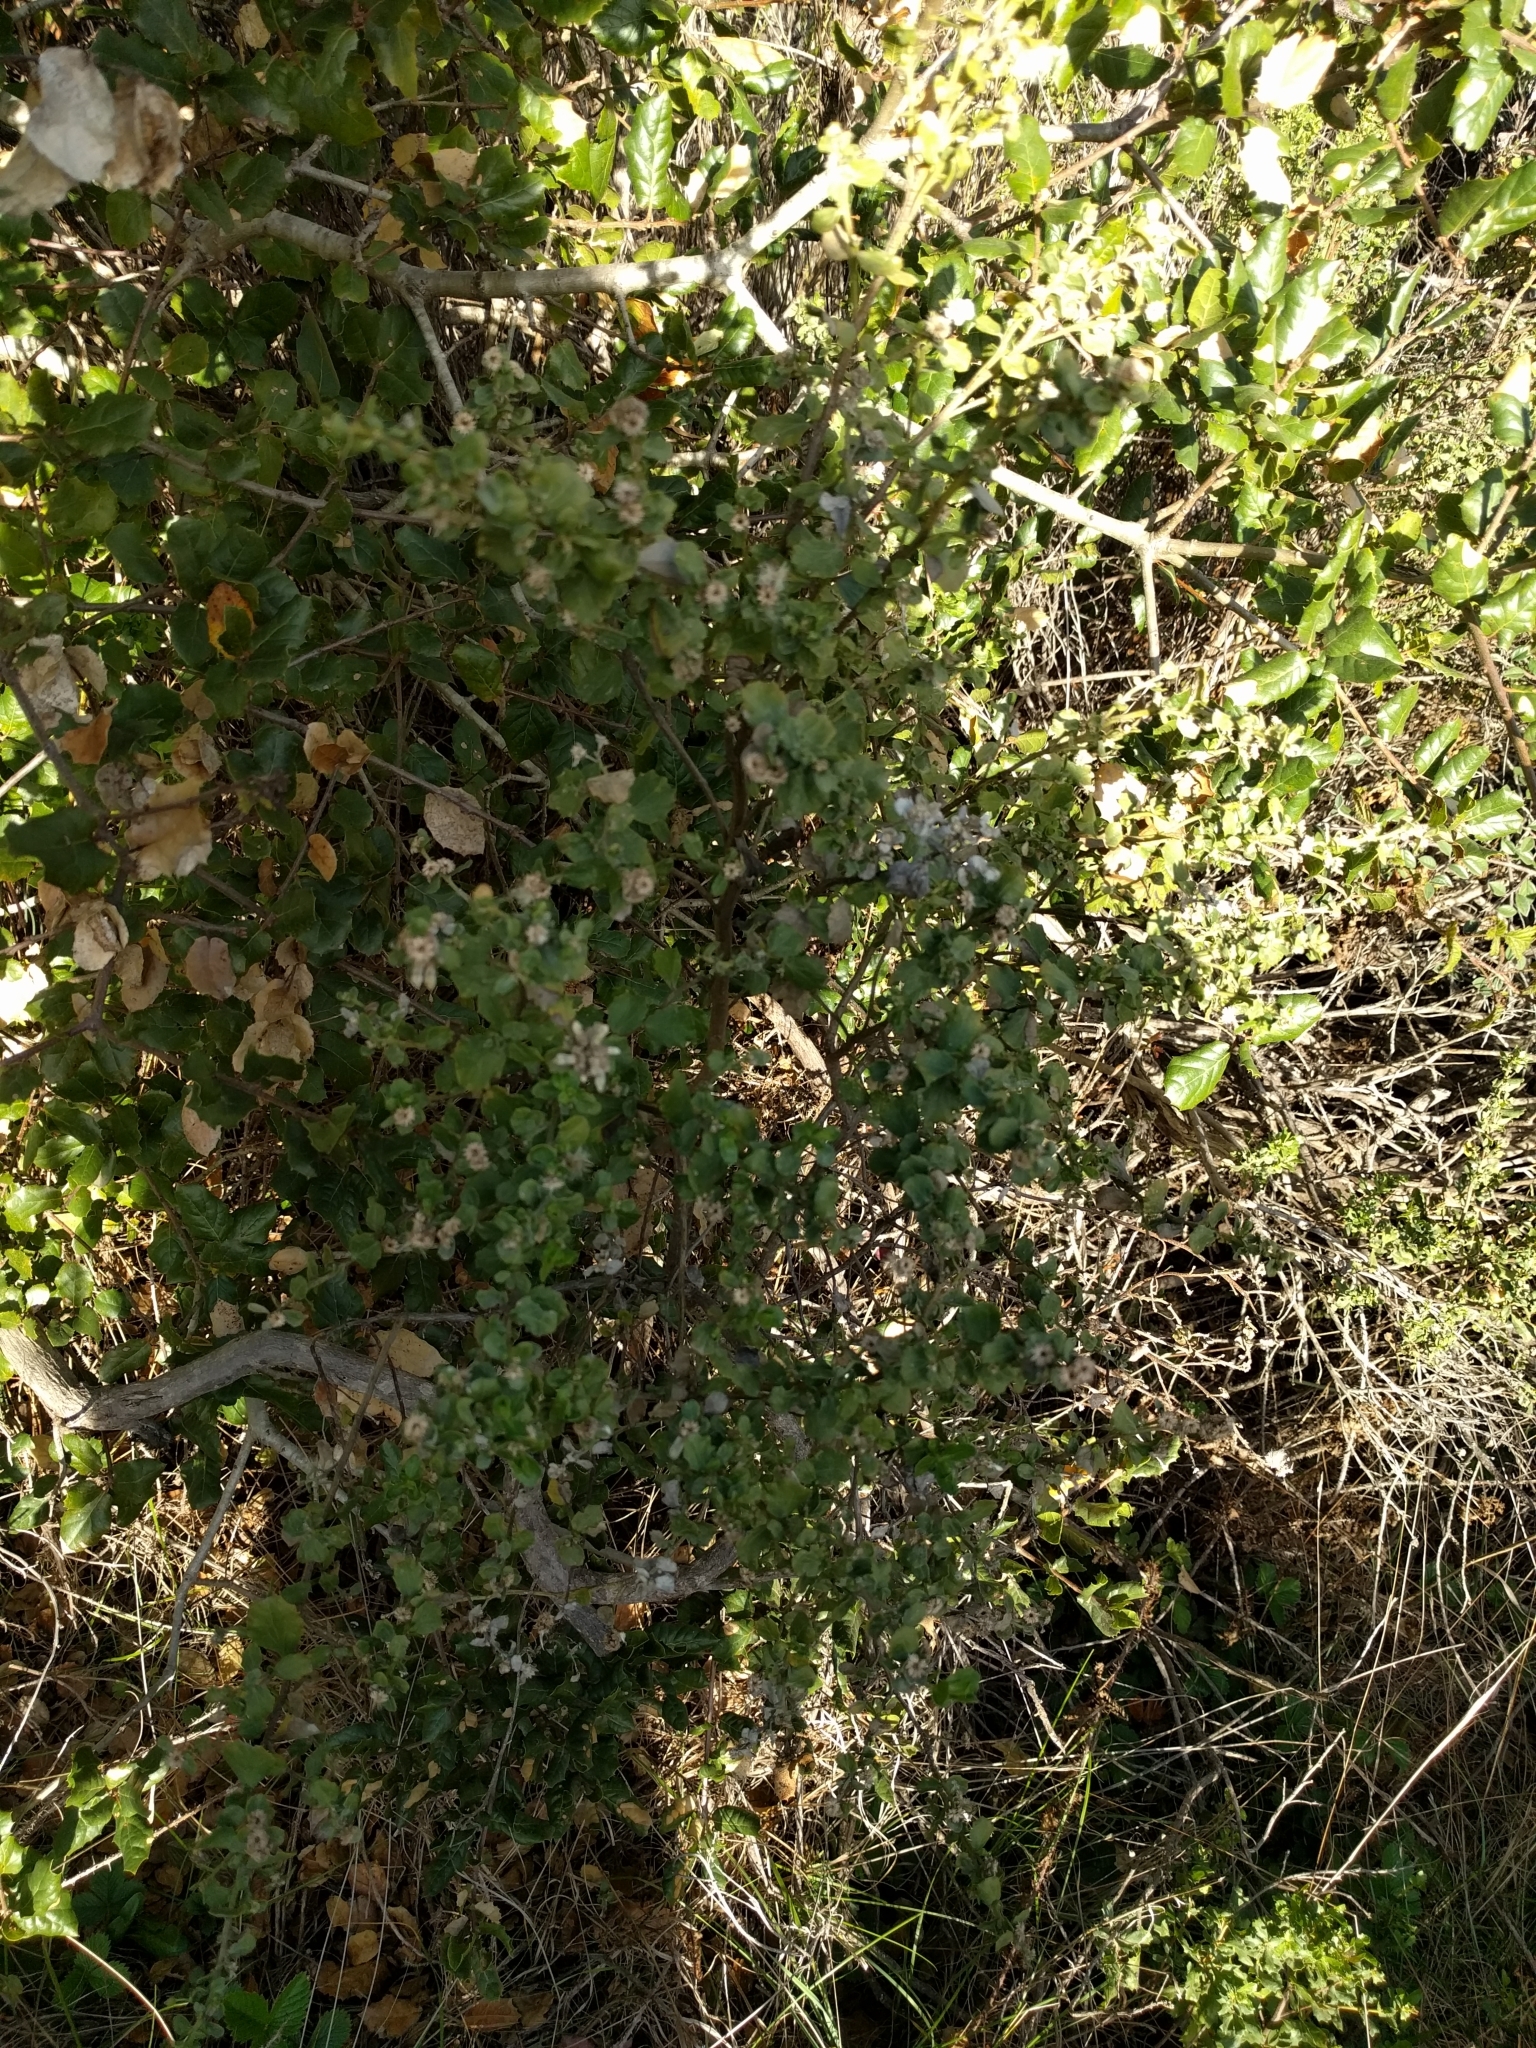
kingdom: Plantae
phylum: Tracheophyta
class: Magnoliopsida
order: Asterales
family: Asteraceae
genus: Baccharis
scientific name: Baccharis pilularis
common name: Coyotebrush
